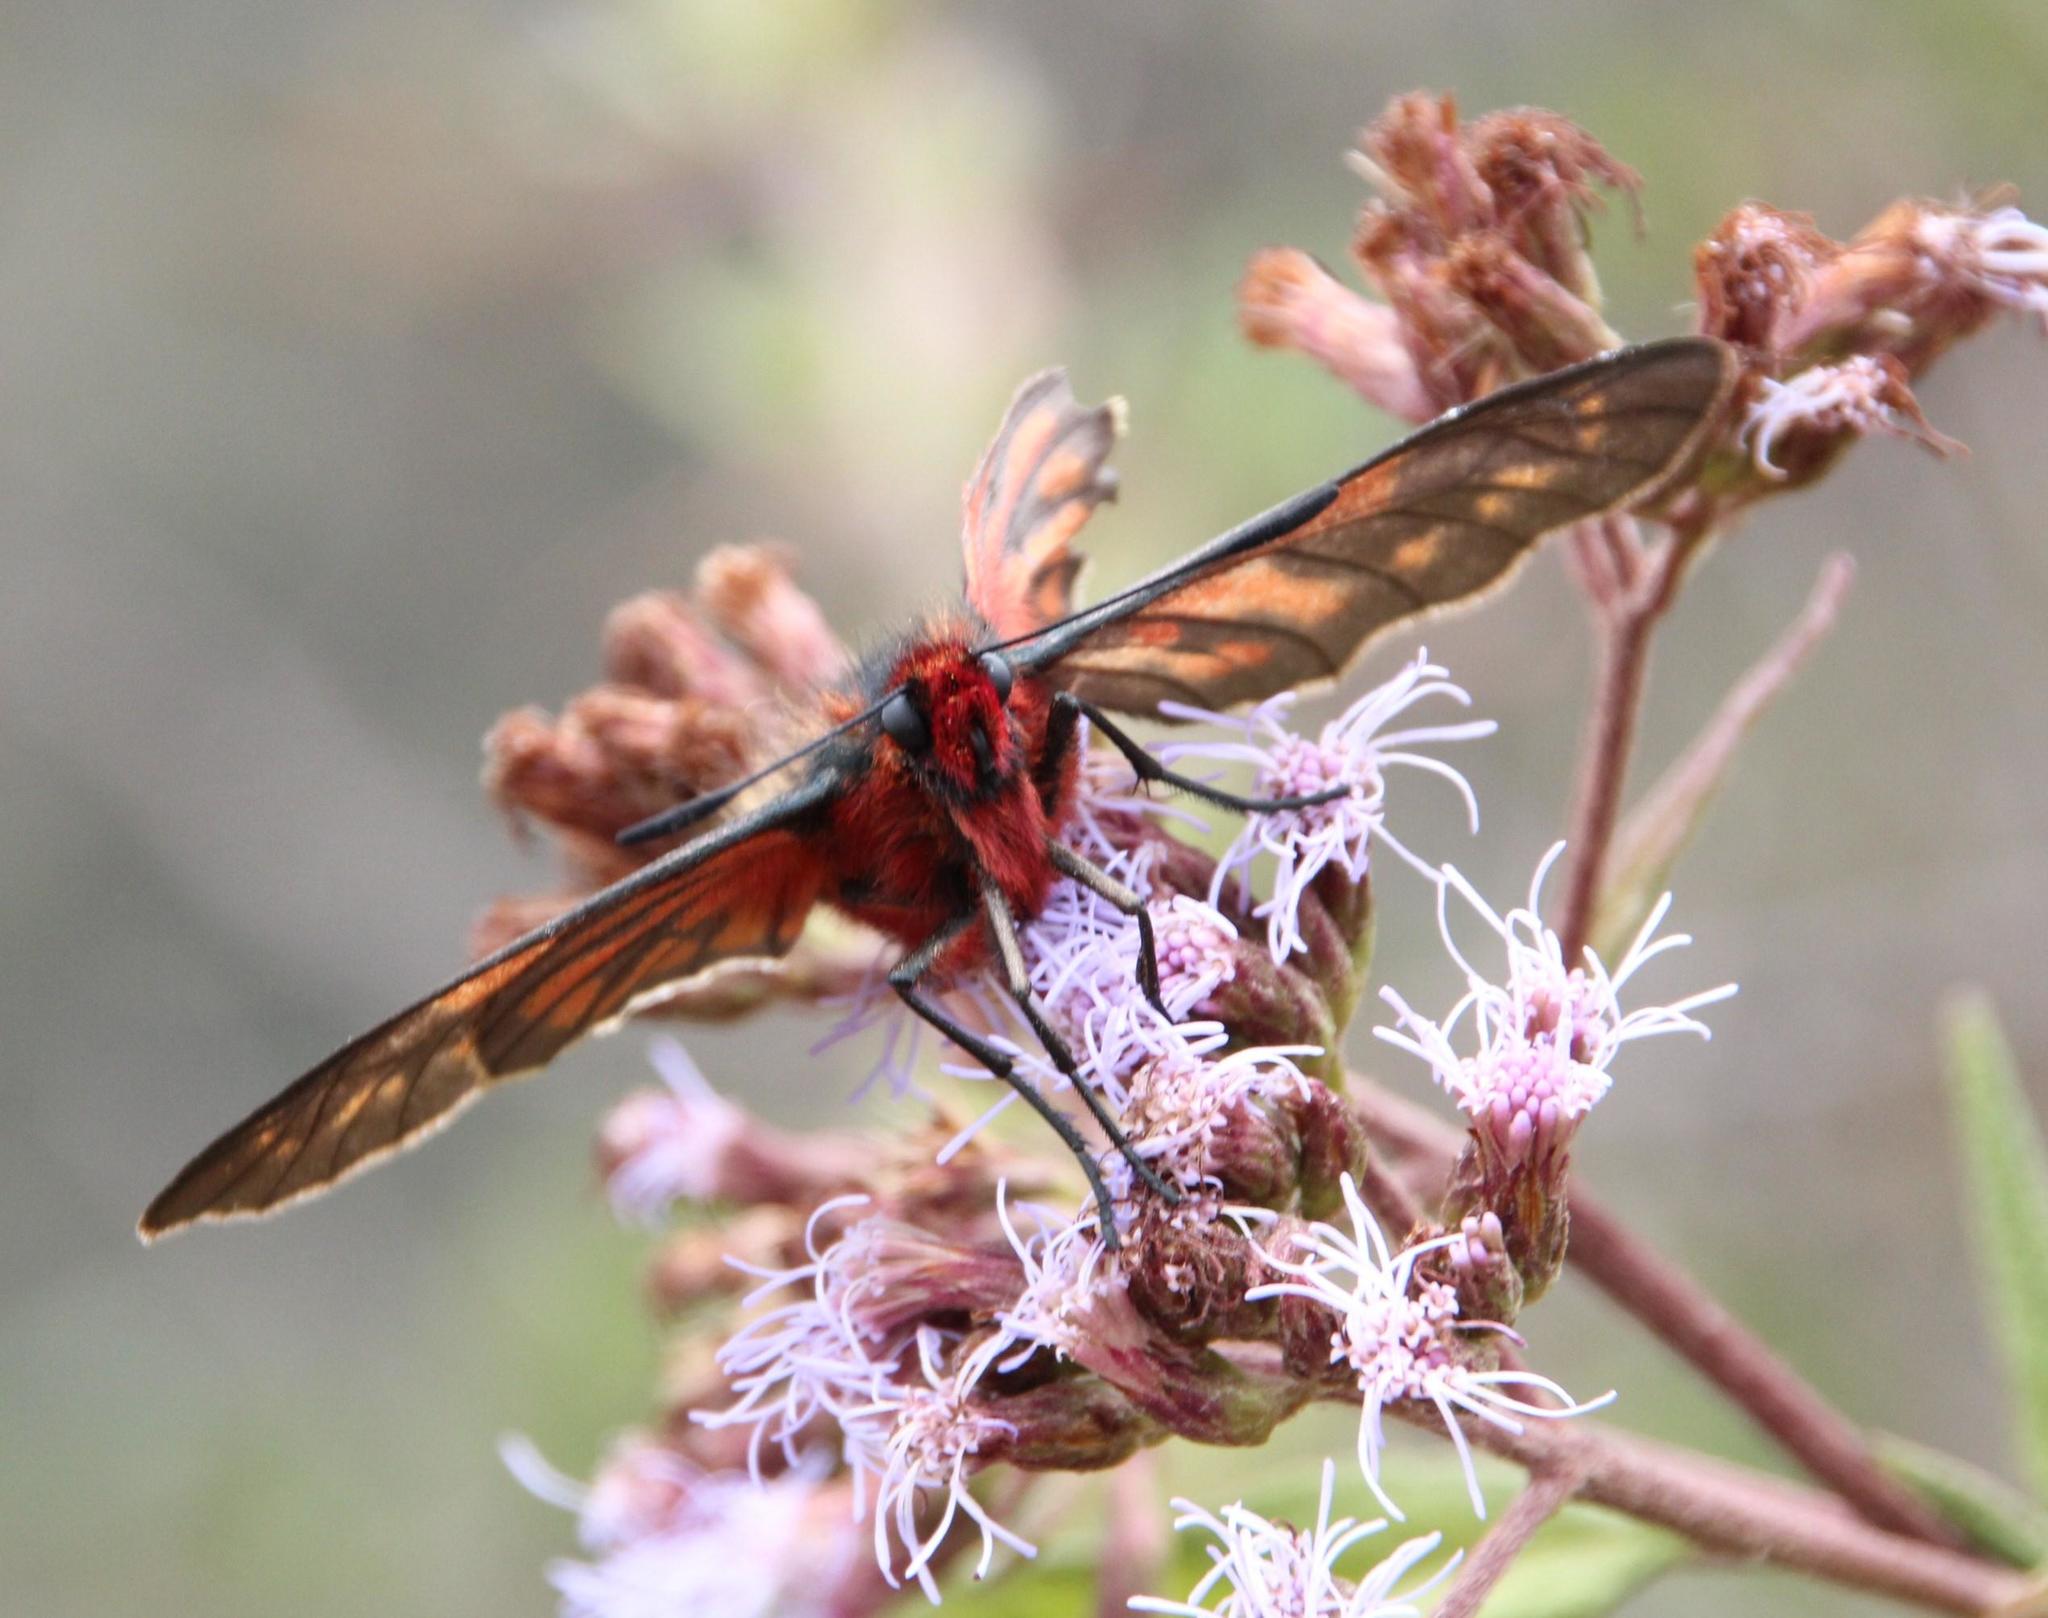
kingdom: Animalia
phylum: Arthropoda
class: Insecta
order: Lepidoptera
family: Hesperiidae
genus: Metardaris
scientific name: Metardaris cosinga
